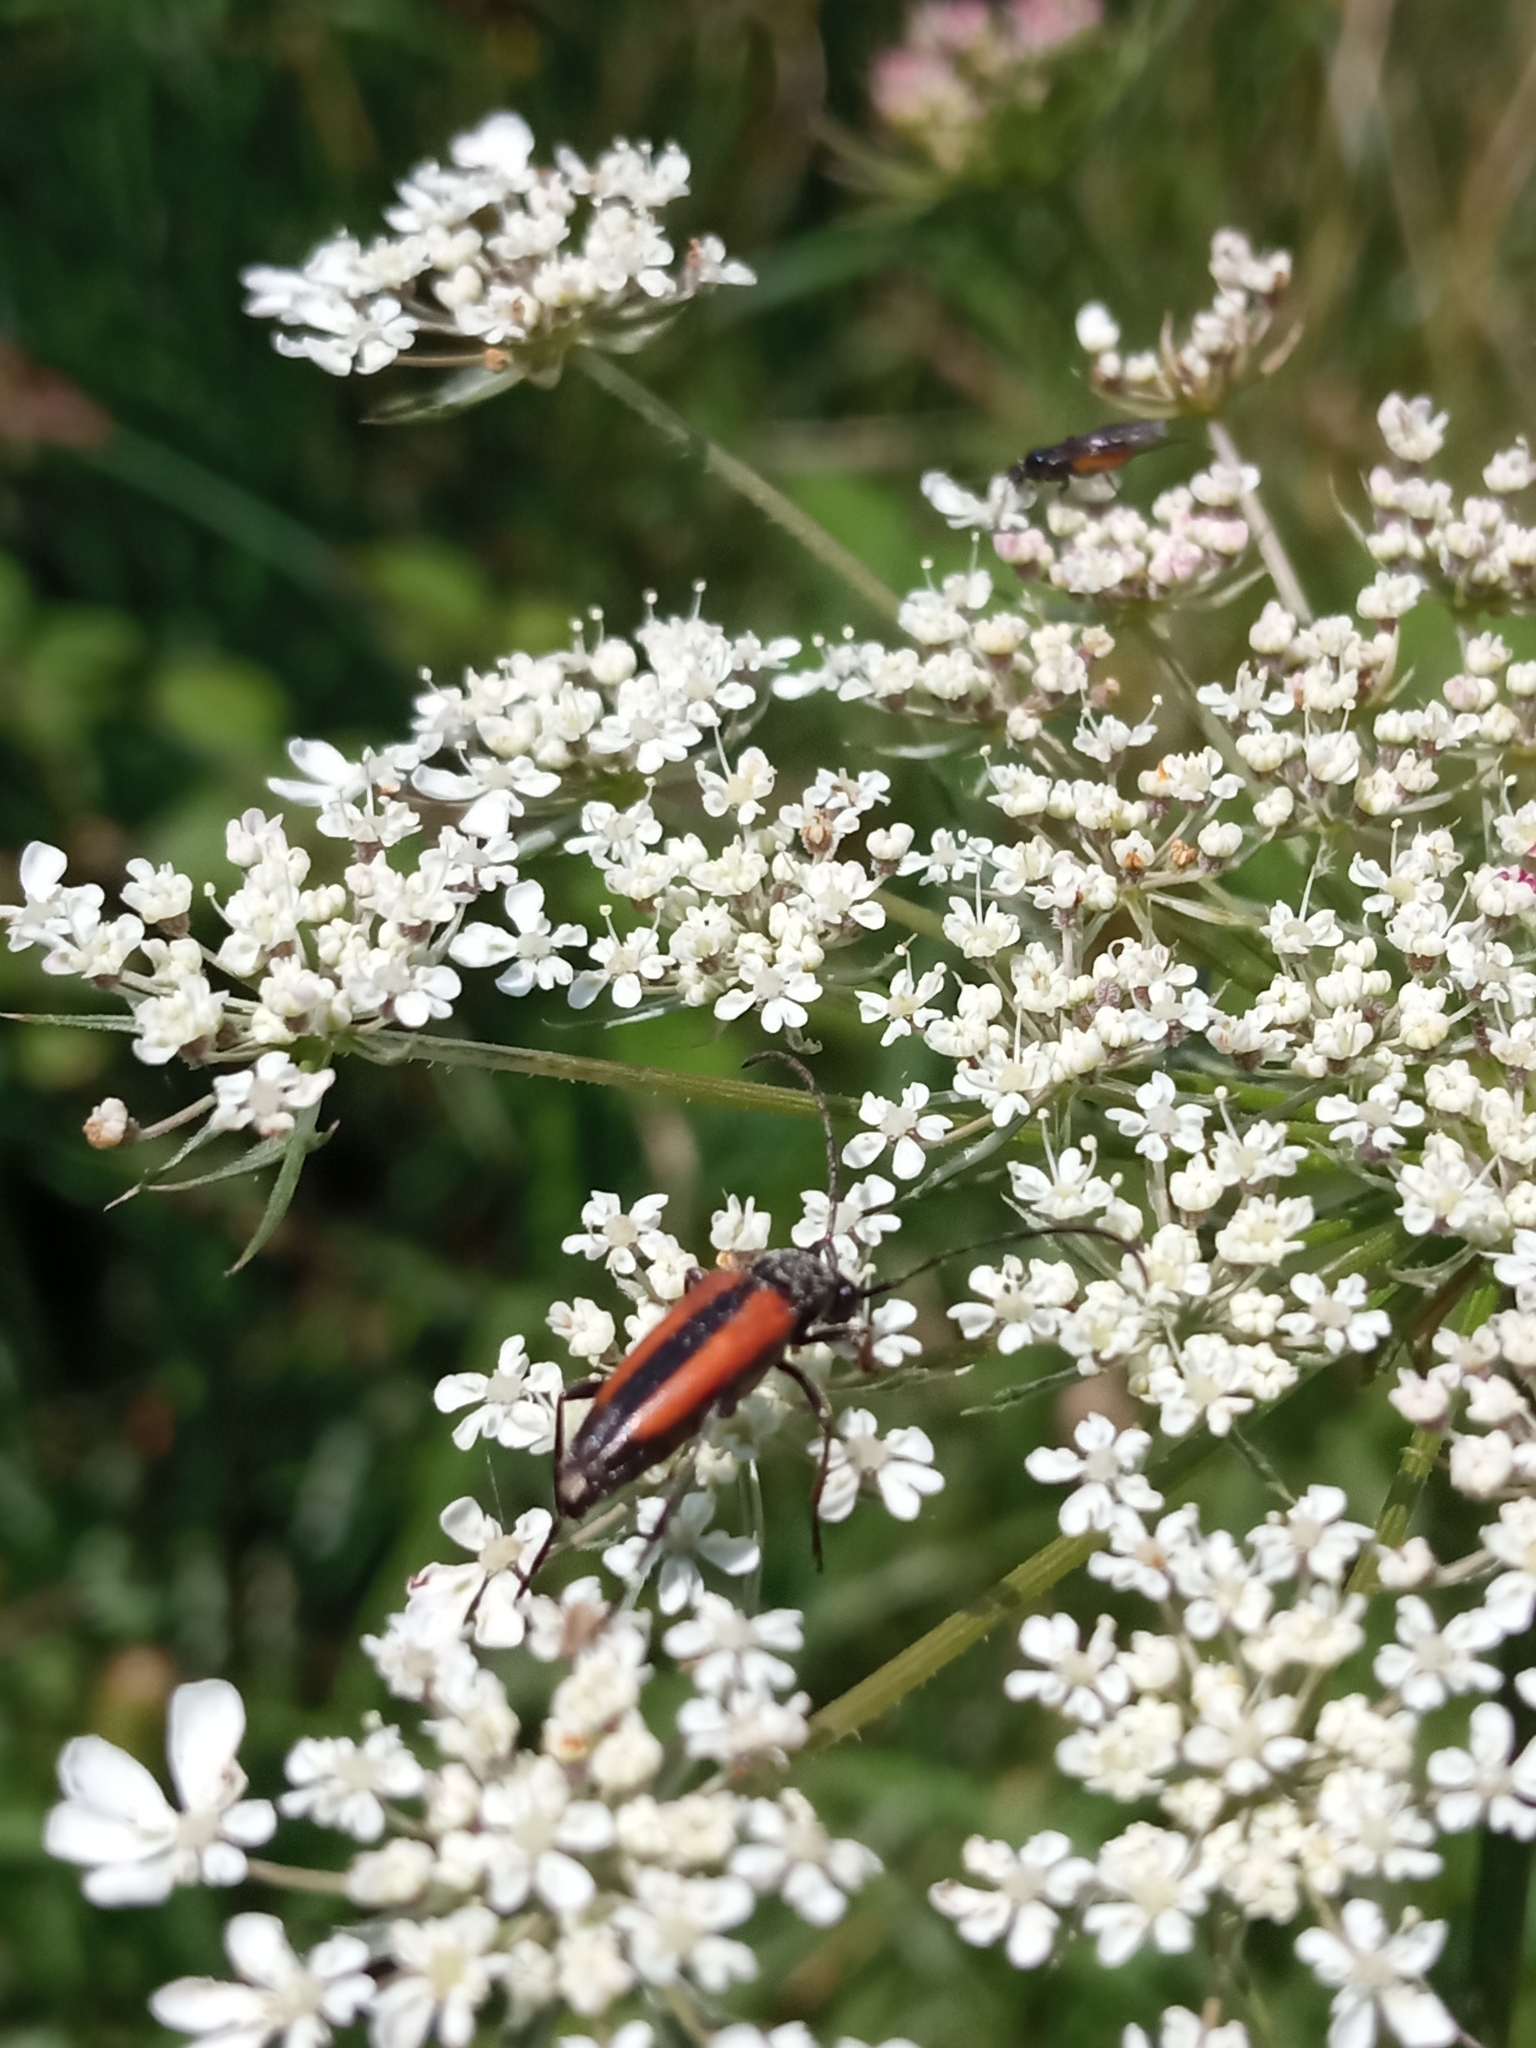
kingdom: Animalia
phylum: Arthropoda
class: Insecta
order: Coleoptera
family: Cerambycidae
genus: Stenurella
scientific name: Stenurella melanura
